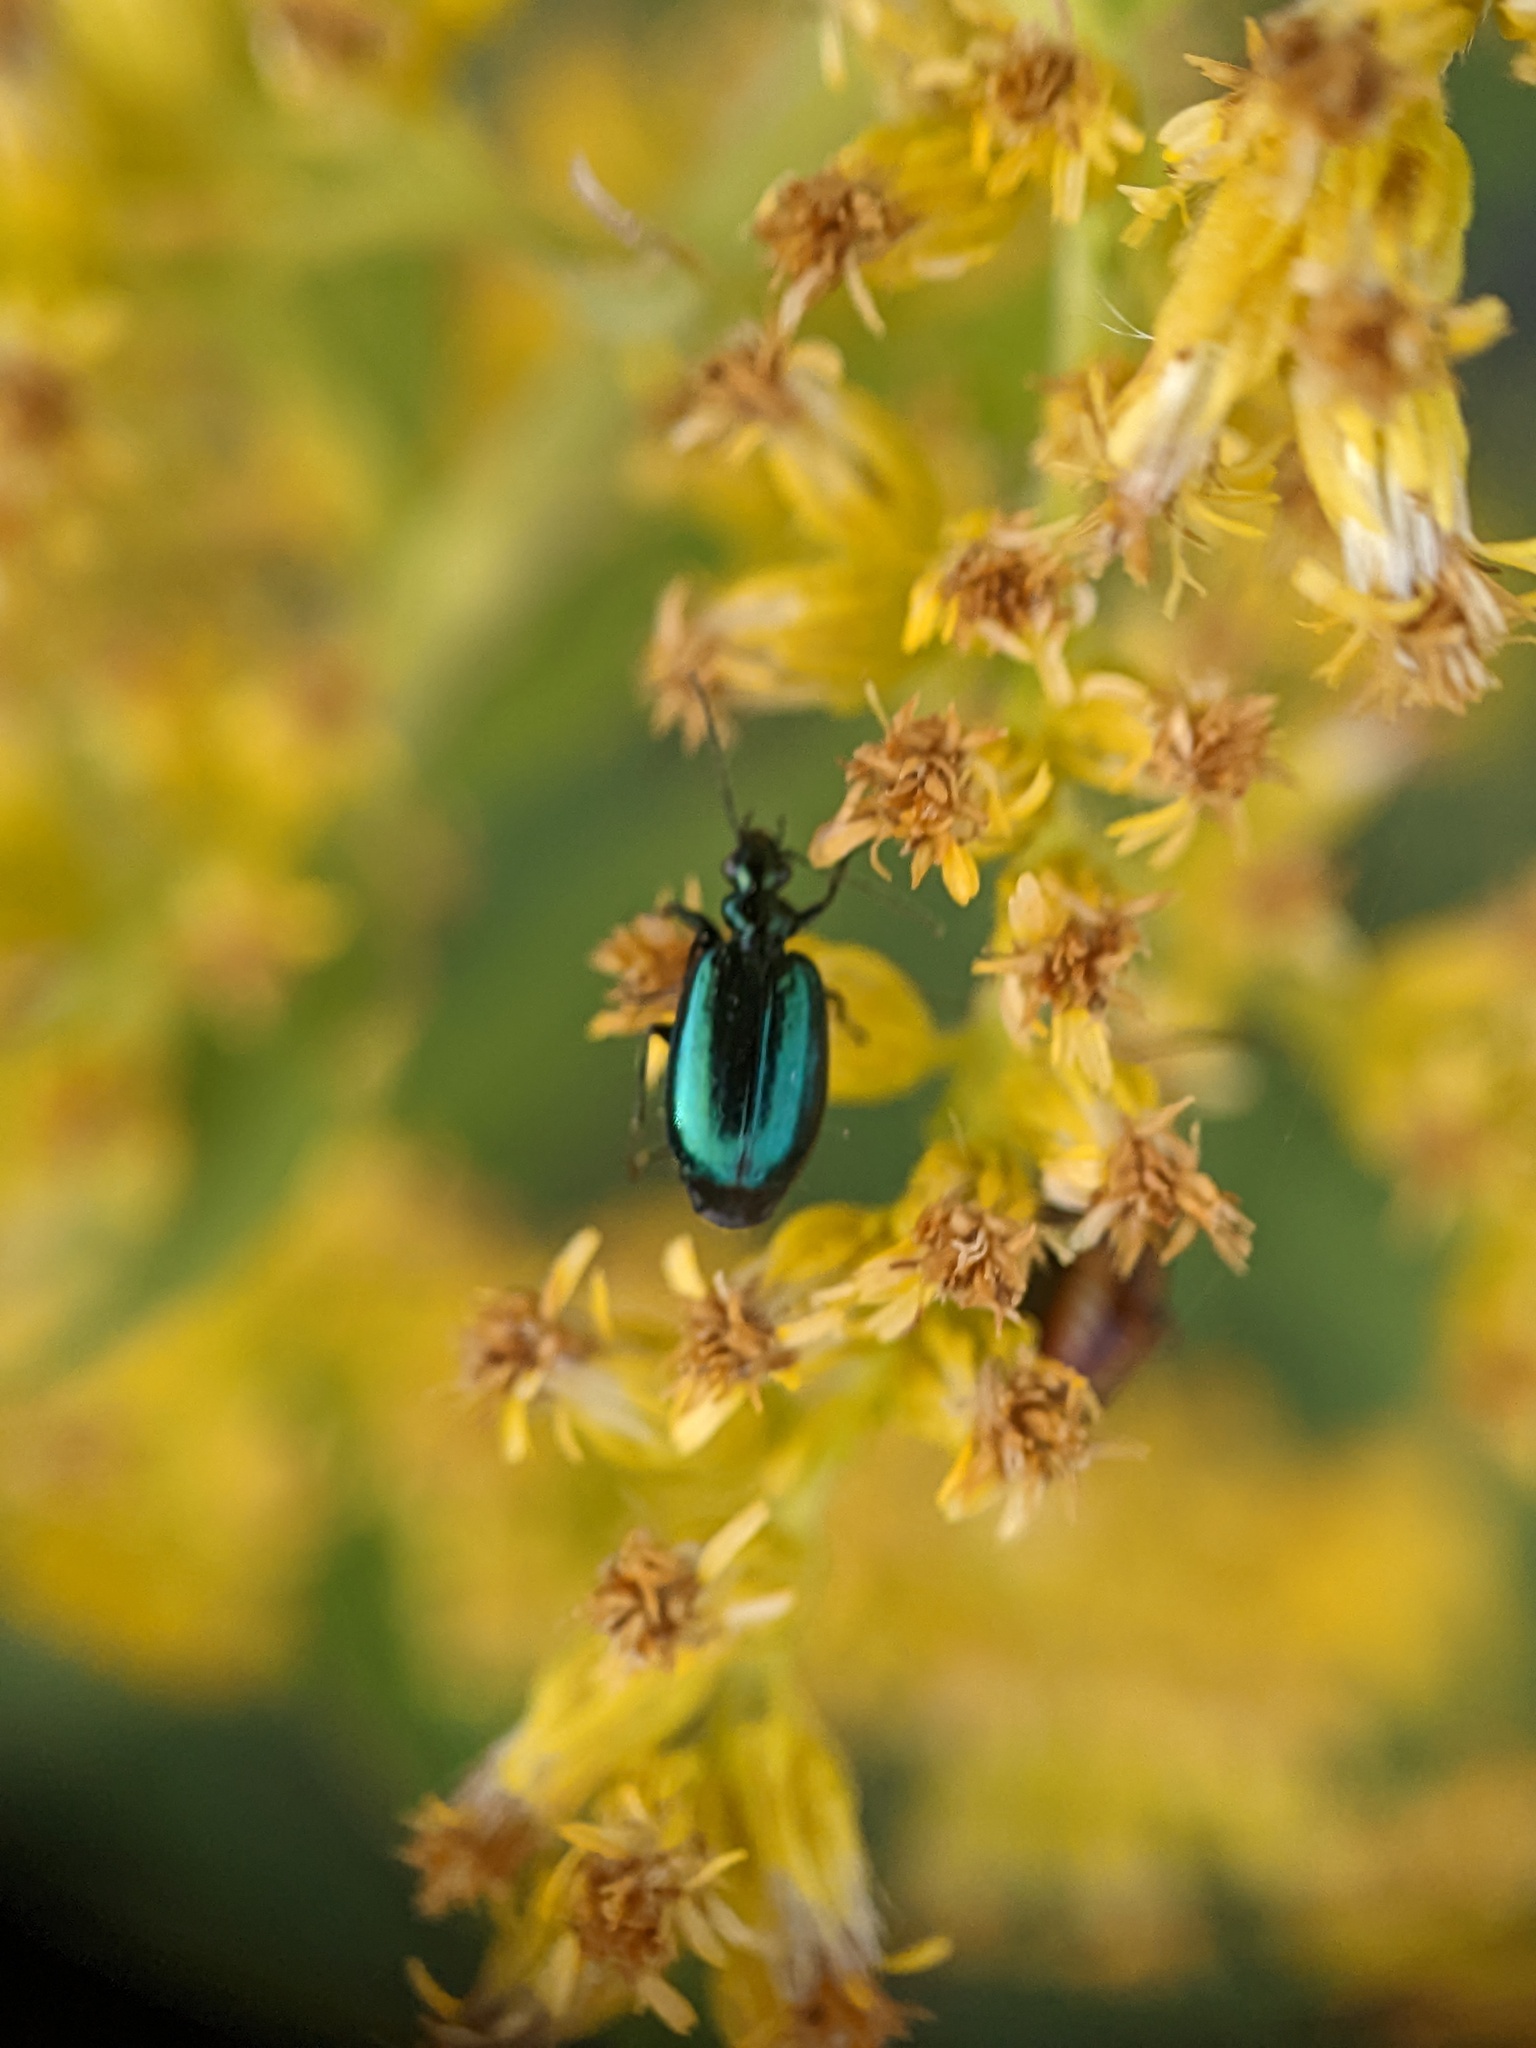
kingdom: Animalia
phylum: Arthropoda
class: Insecta
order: Coleoptera
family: Carabidae
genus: Lebia
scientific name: Lebia viridis
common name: Flower lebia beetle
